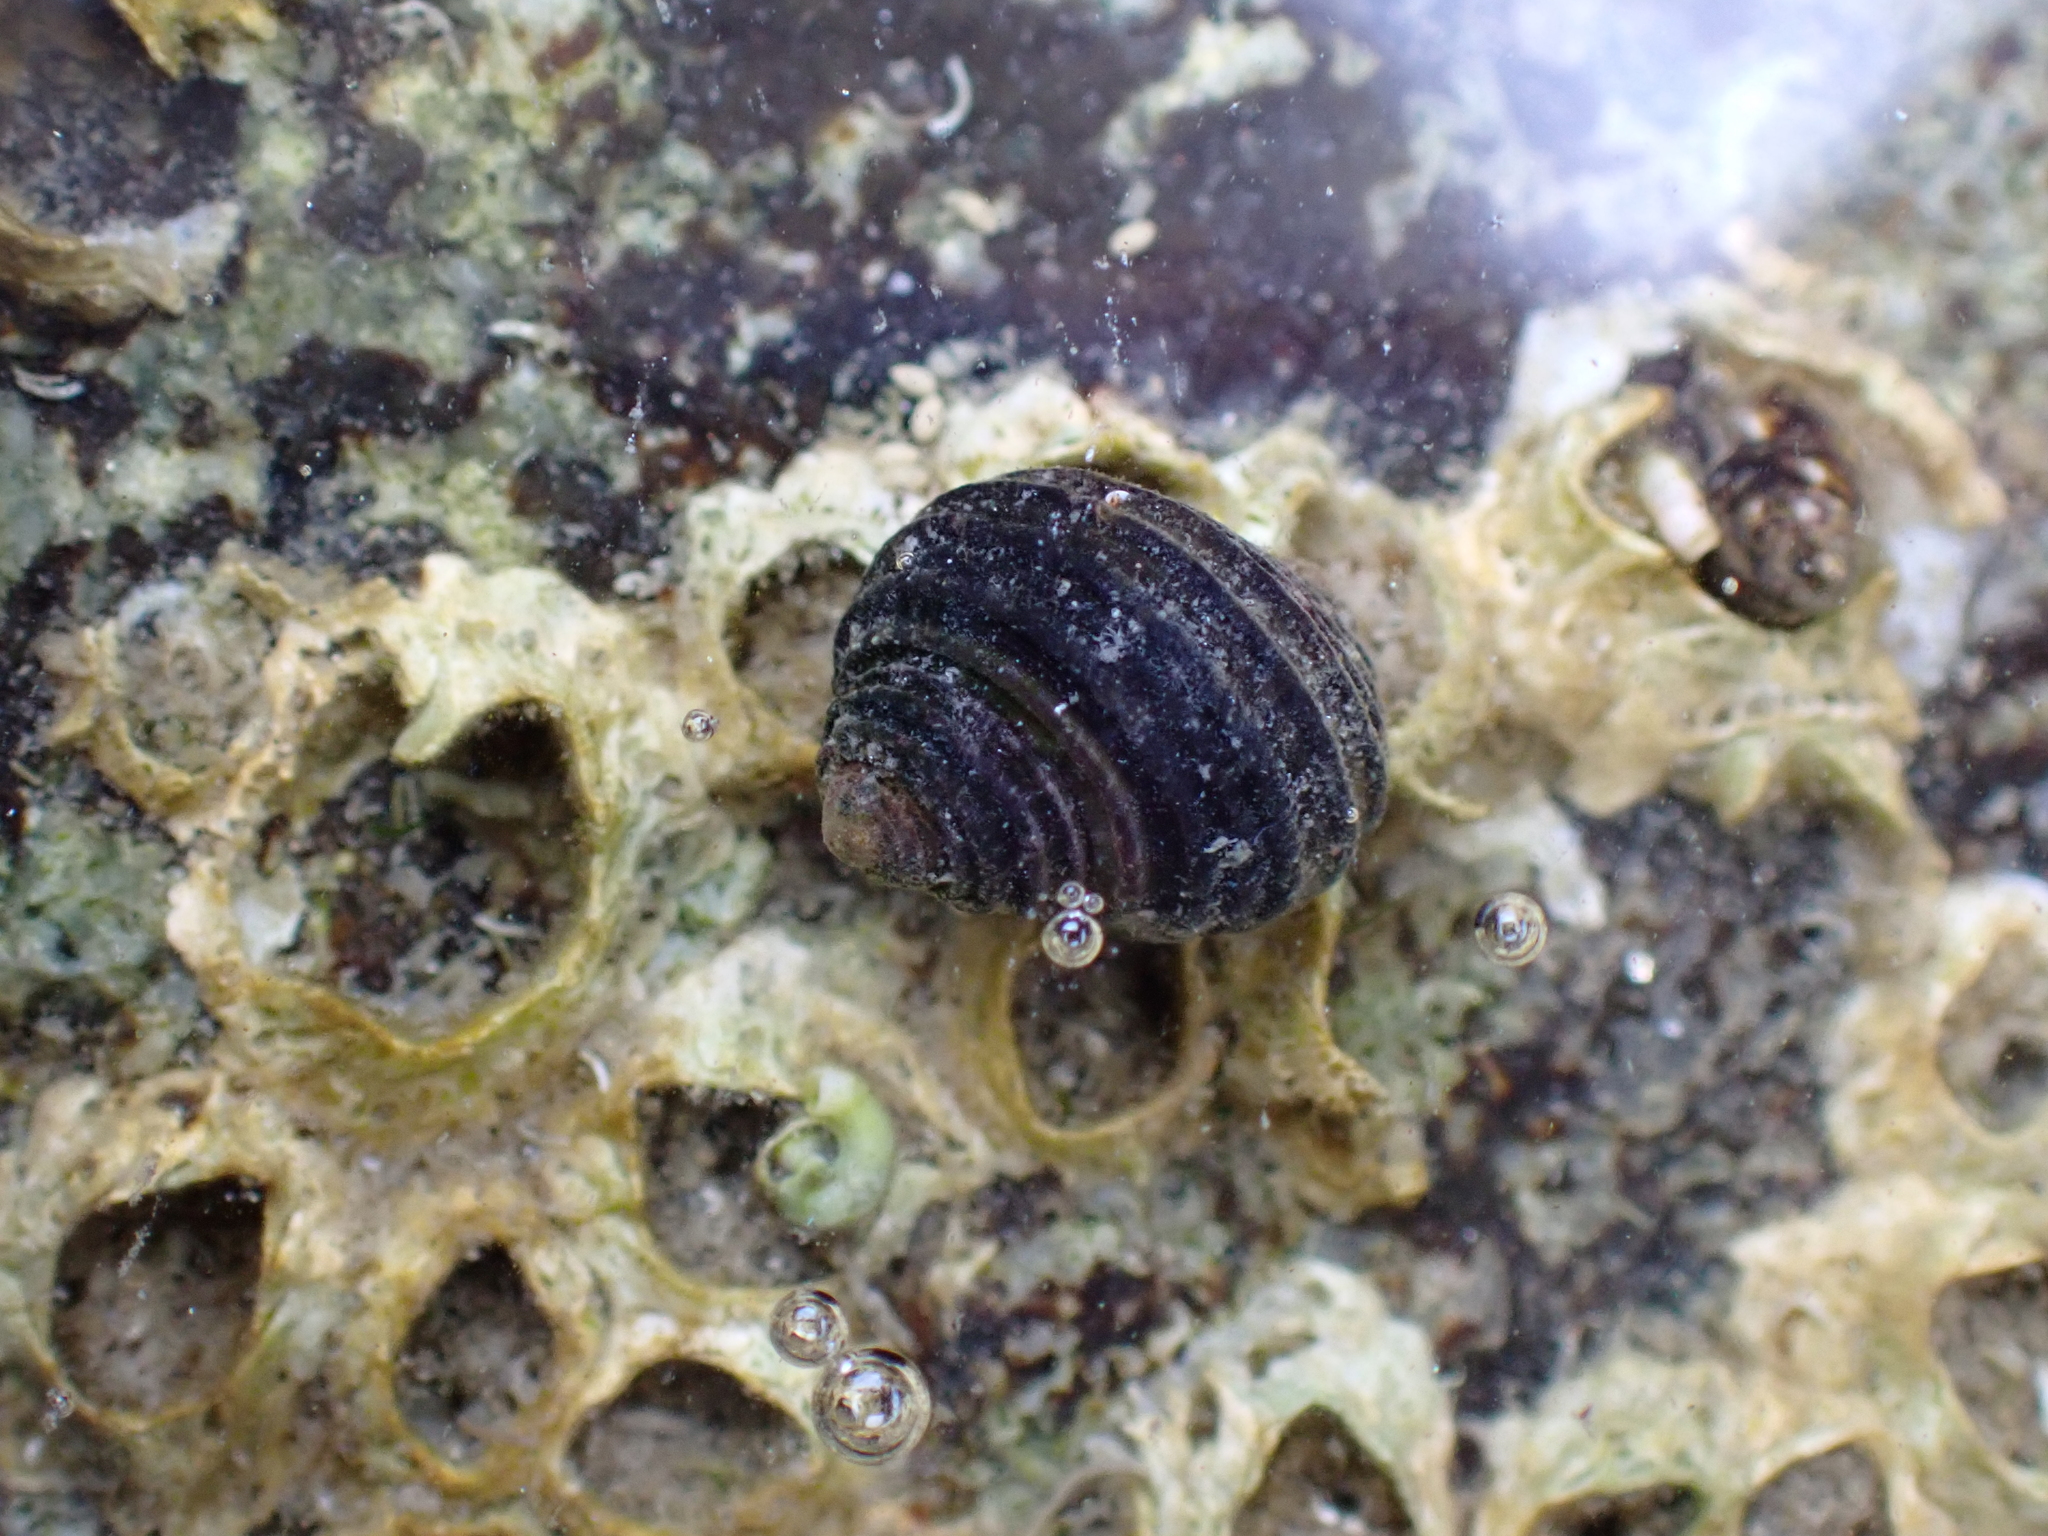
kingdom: Animalia
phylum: Mollusca
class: Gastropoda
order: Littorinimorpha
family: Littorinidae
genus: Littorina
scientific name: Littorina sitkana
